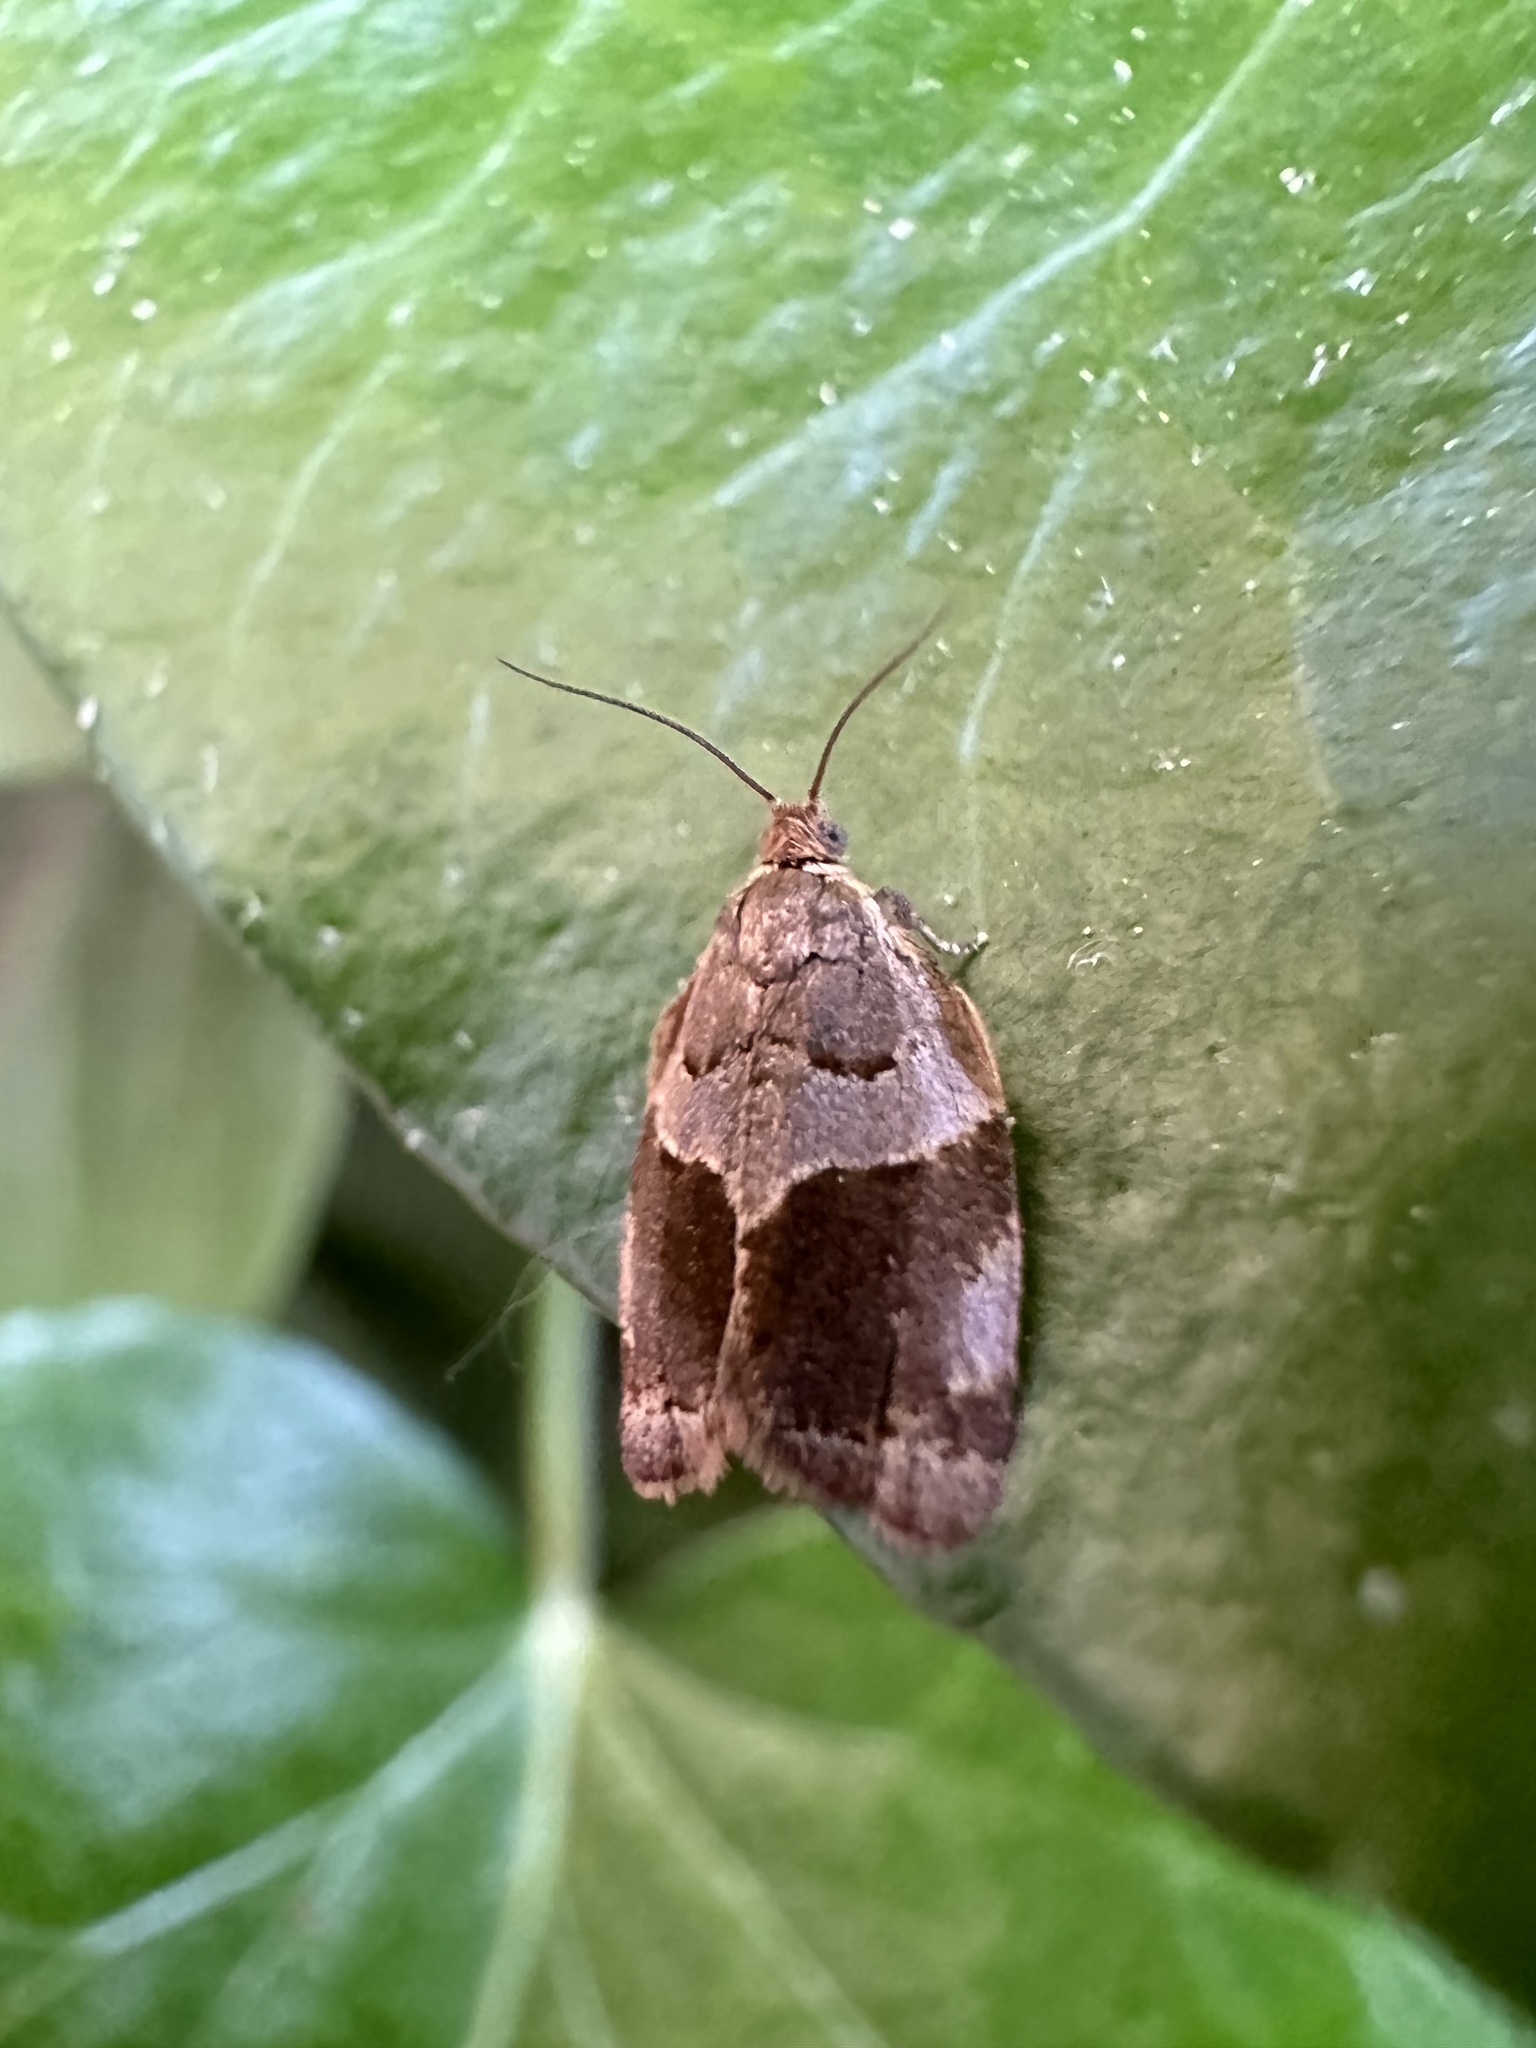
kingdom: Animalia
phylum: Arthropoda
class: Insecta
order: Lepidoptera
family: Tortricidae
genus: Clepsis
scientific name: Clepsis dumicolana
